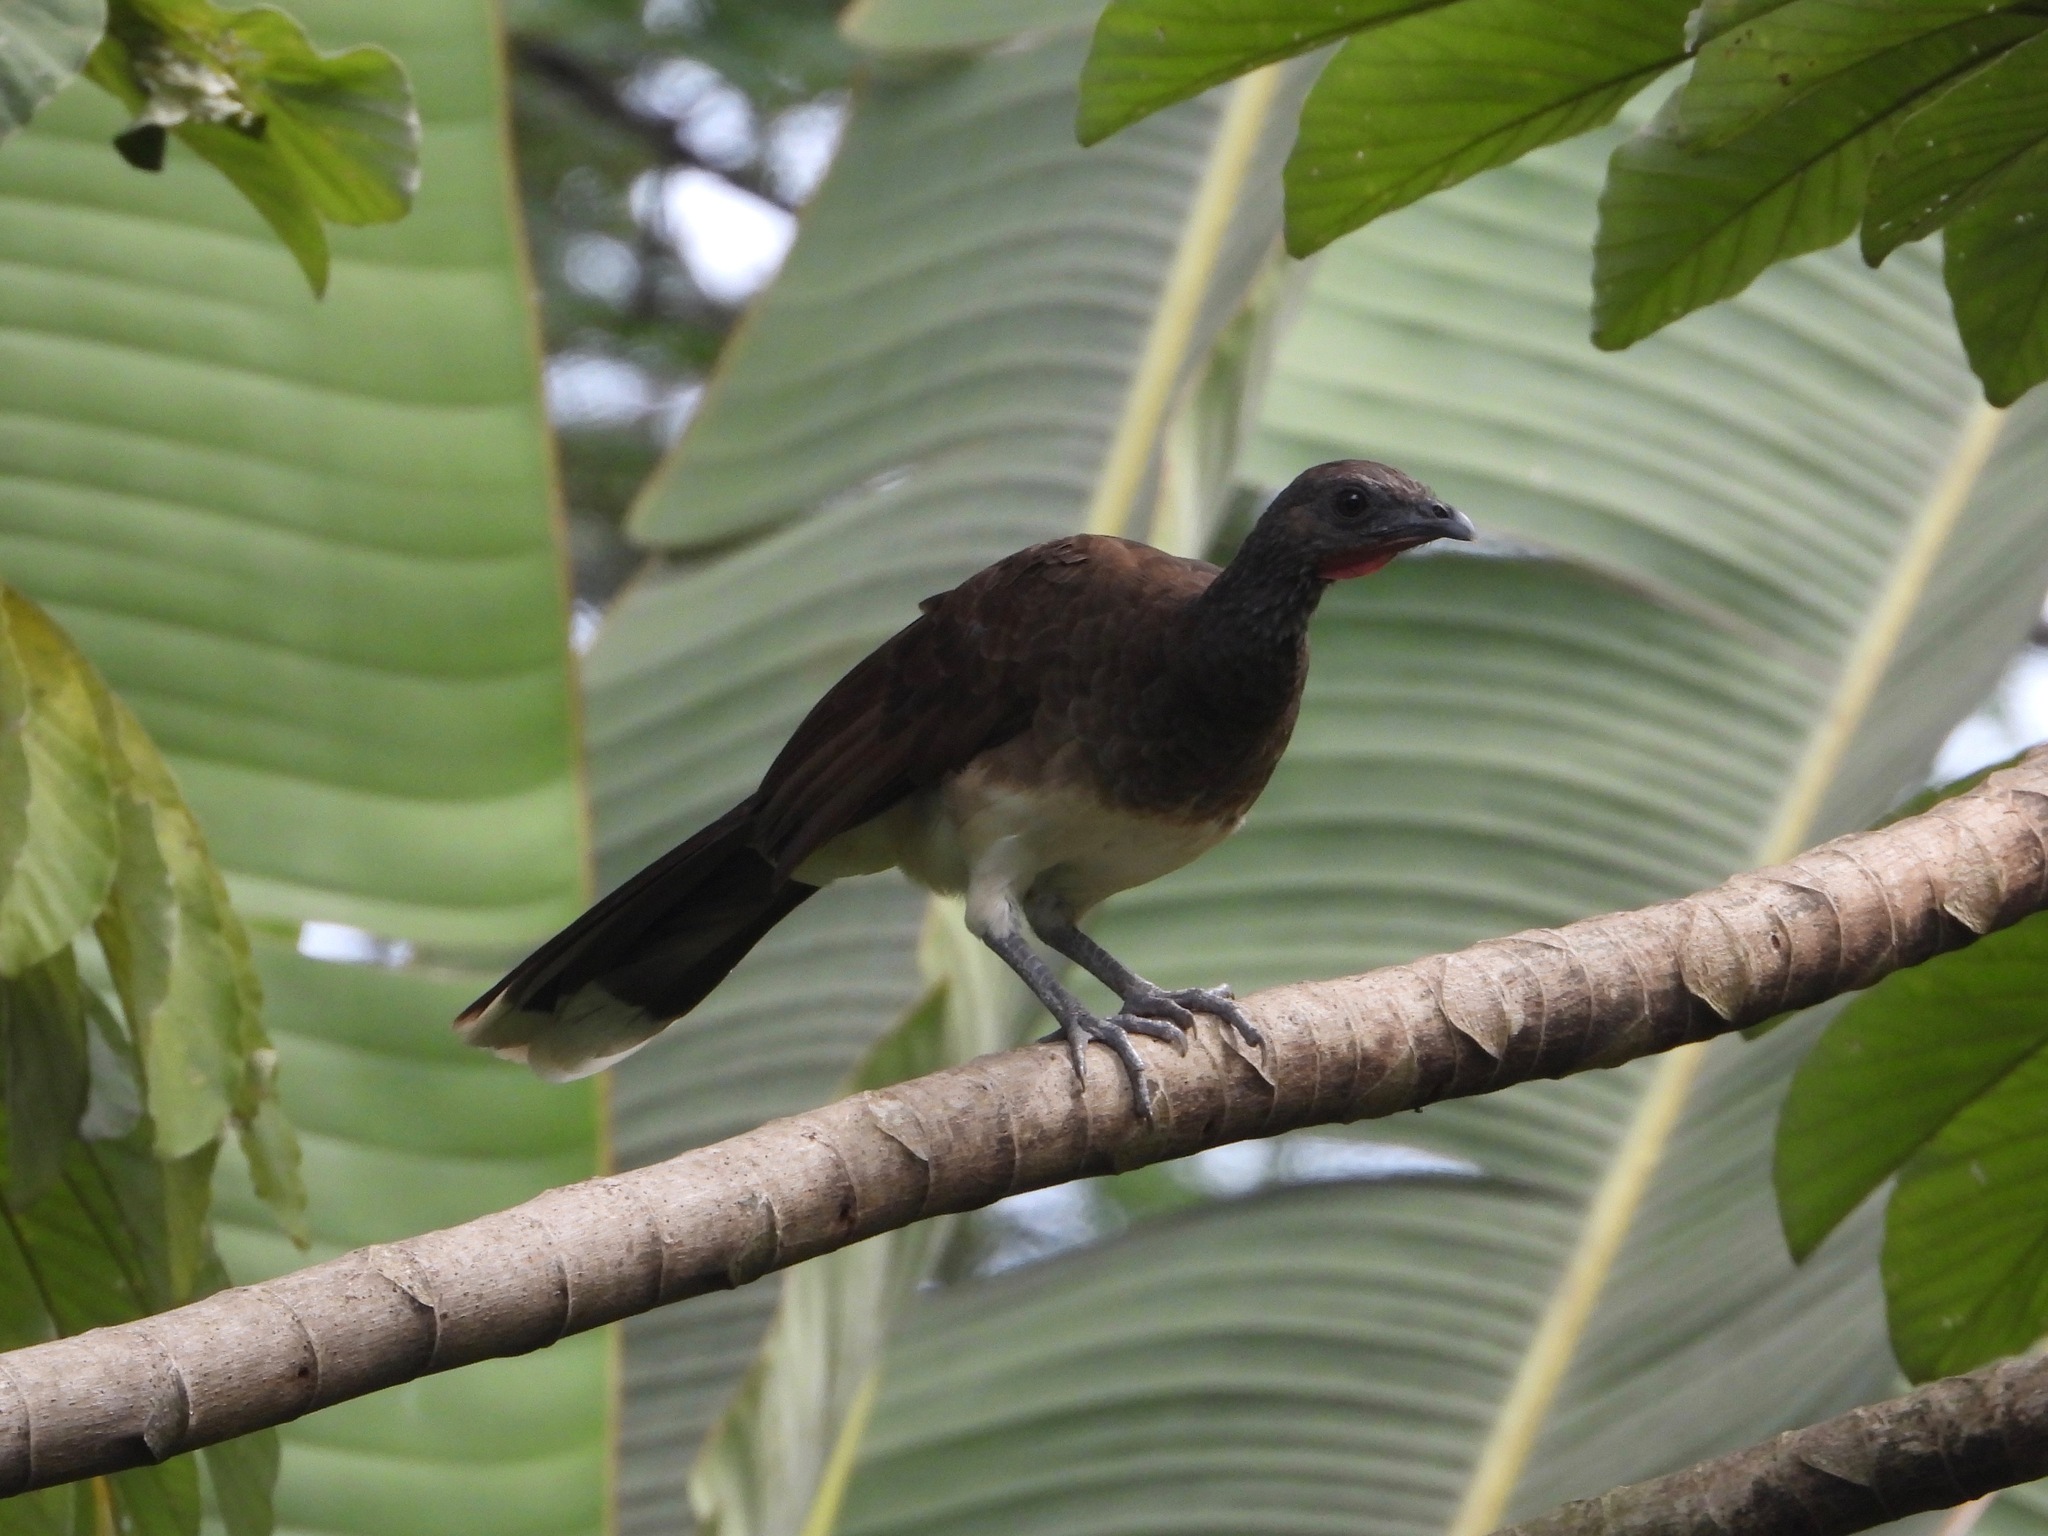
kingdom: Animalia
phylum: Chordata
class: Aves
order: Galliformes
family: Cracidae
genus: Ortalis
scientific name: Ortalis leucogastra
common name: White-bellied chachalaca
